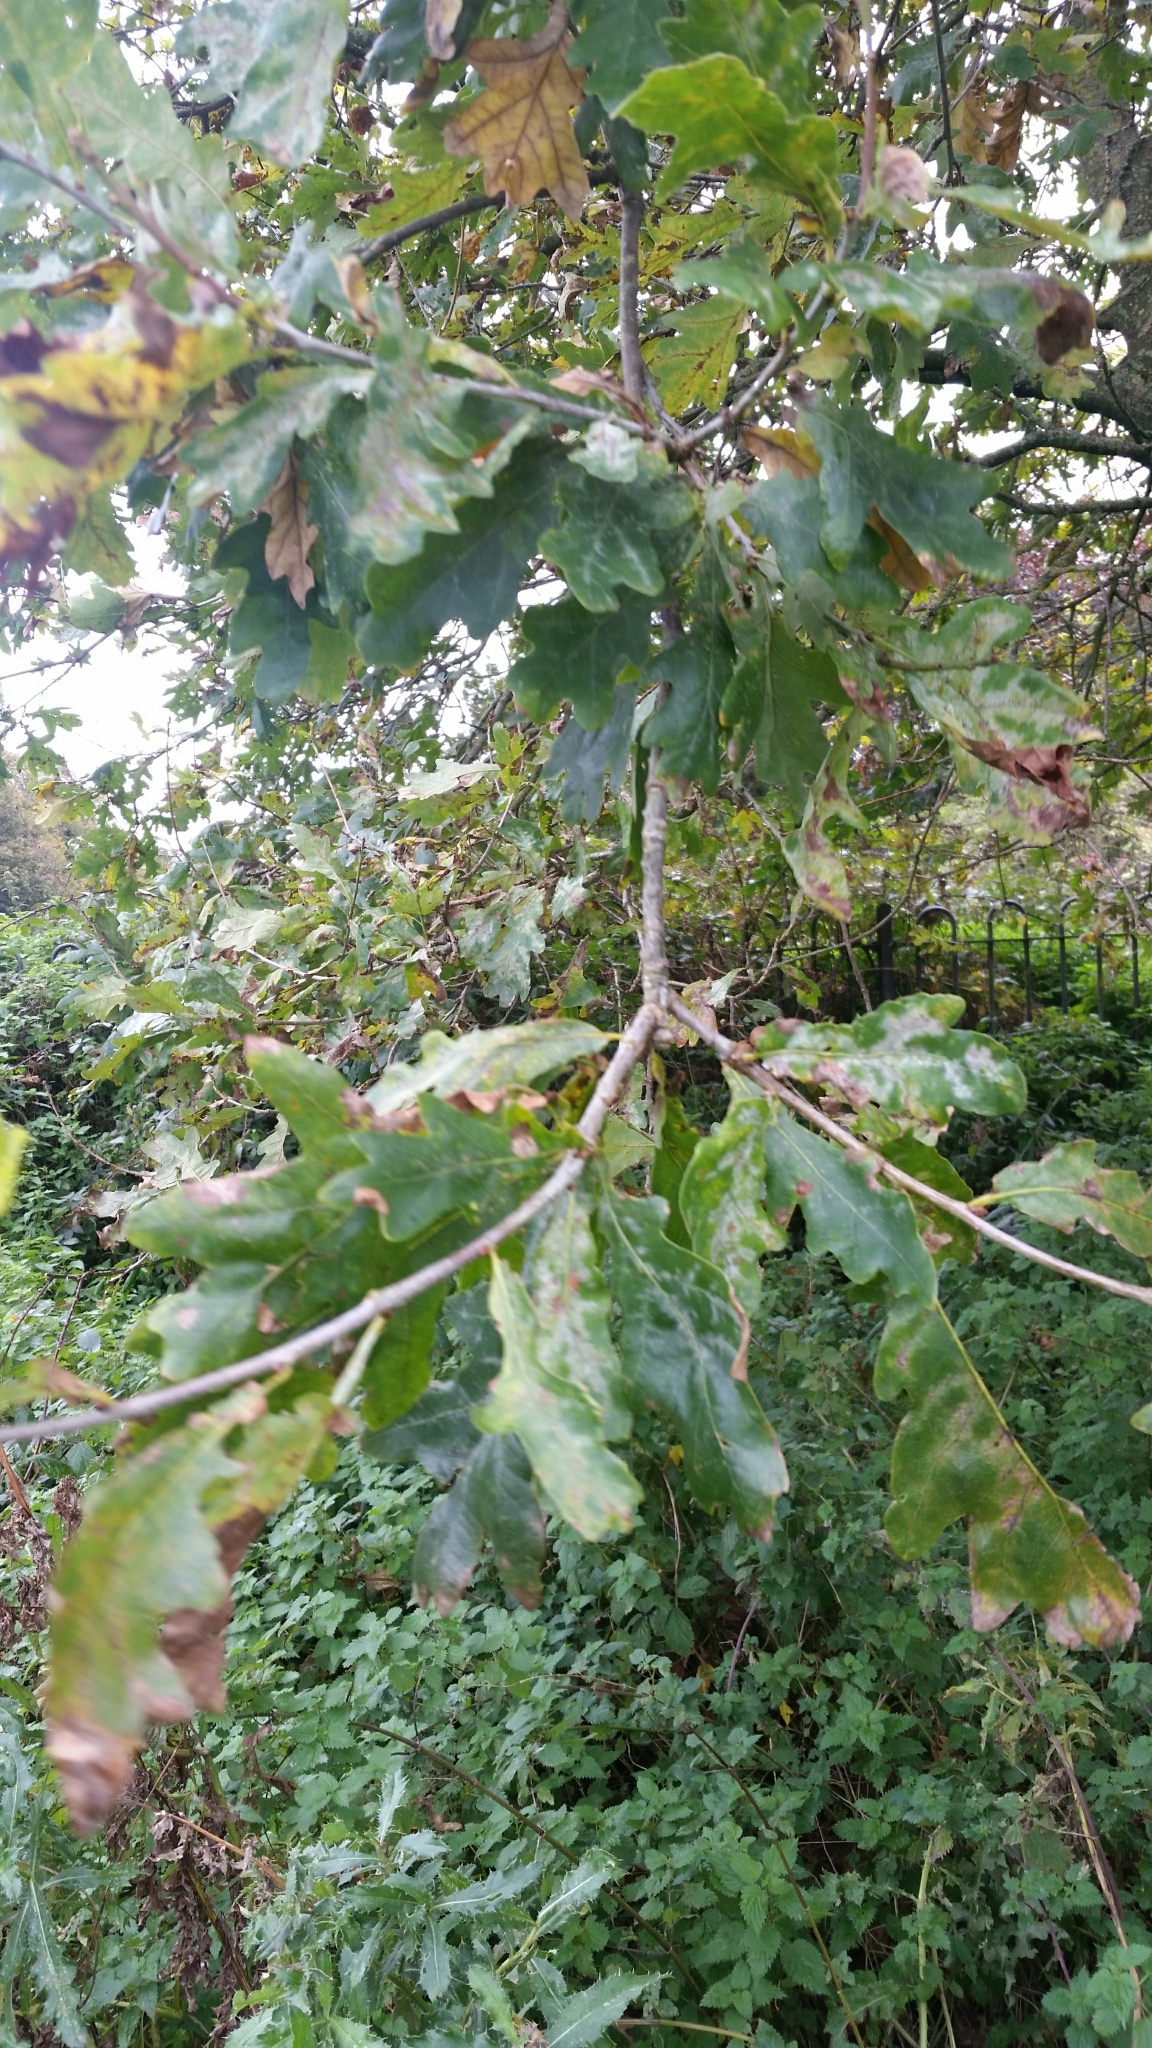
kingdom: Plantae
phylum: Tracheophyta
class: Magnoliopsida
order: Fagales
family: Fagaceae
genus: Quercus
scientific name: Quercus robur
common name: Pedunculate oak
